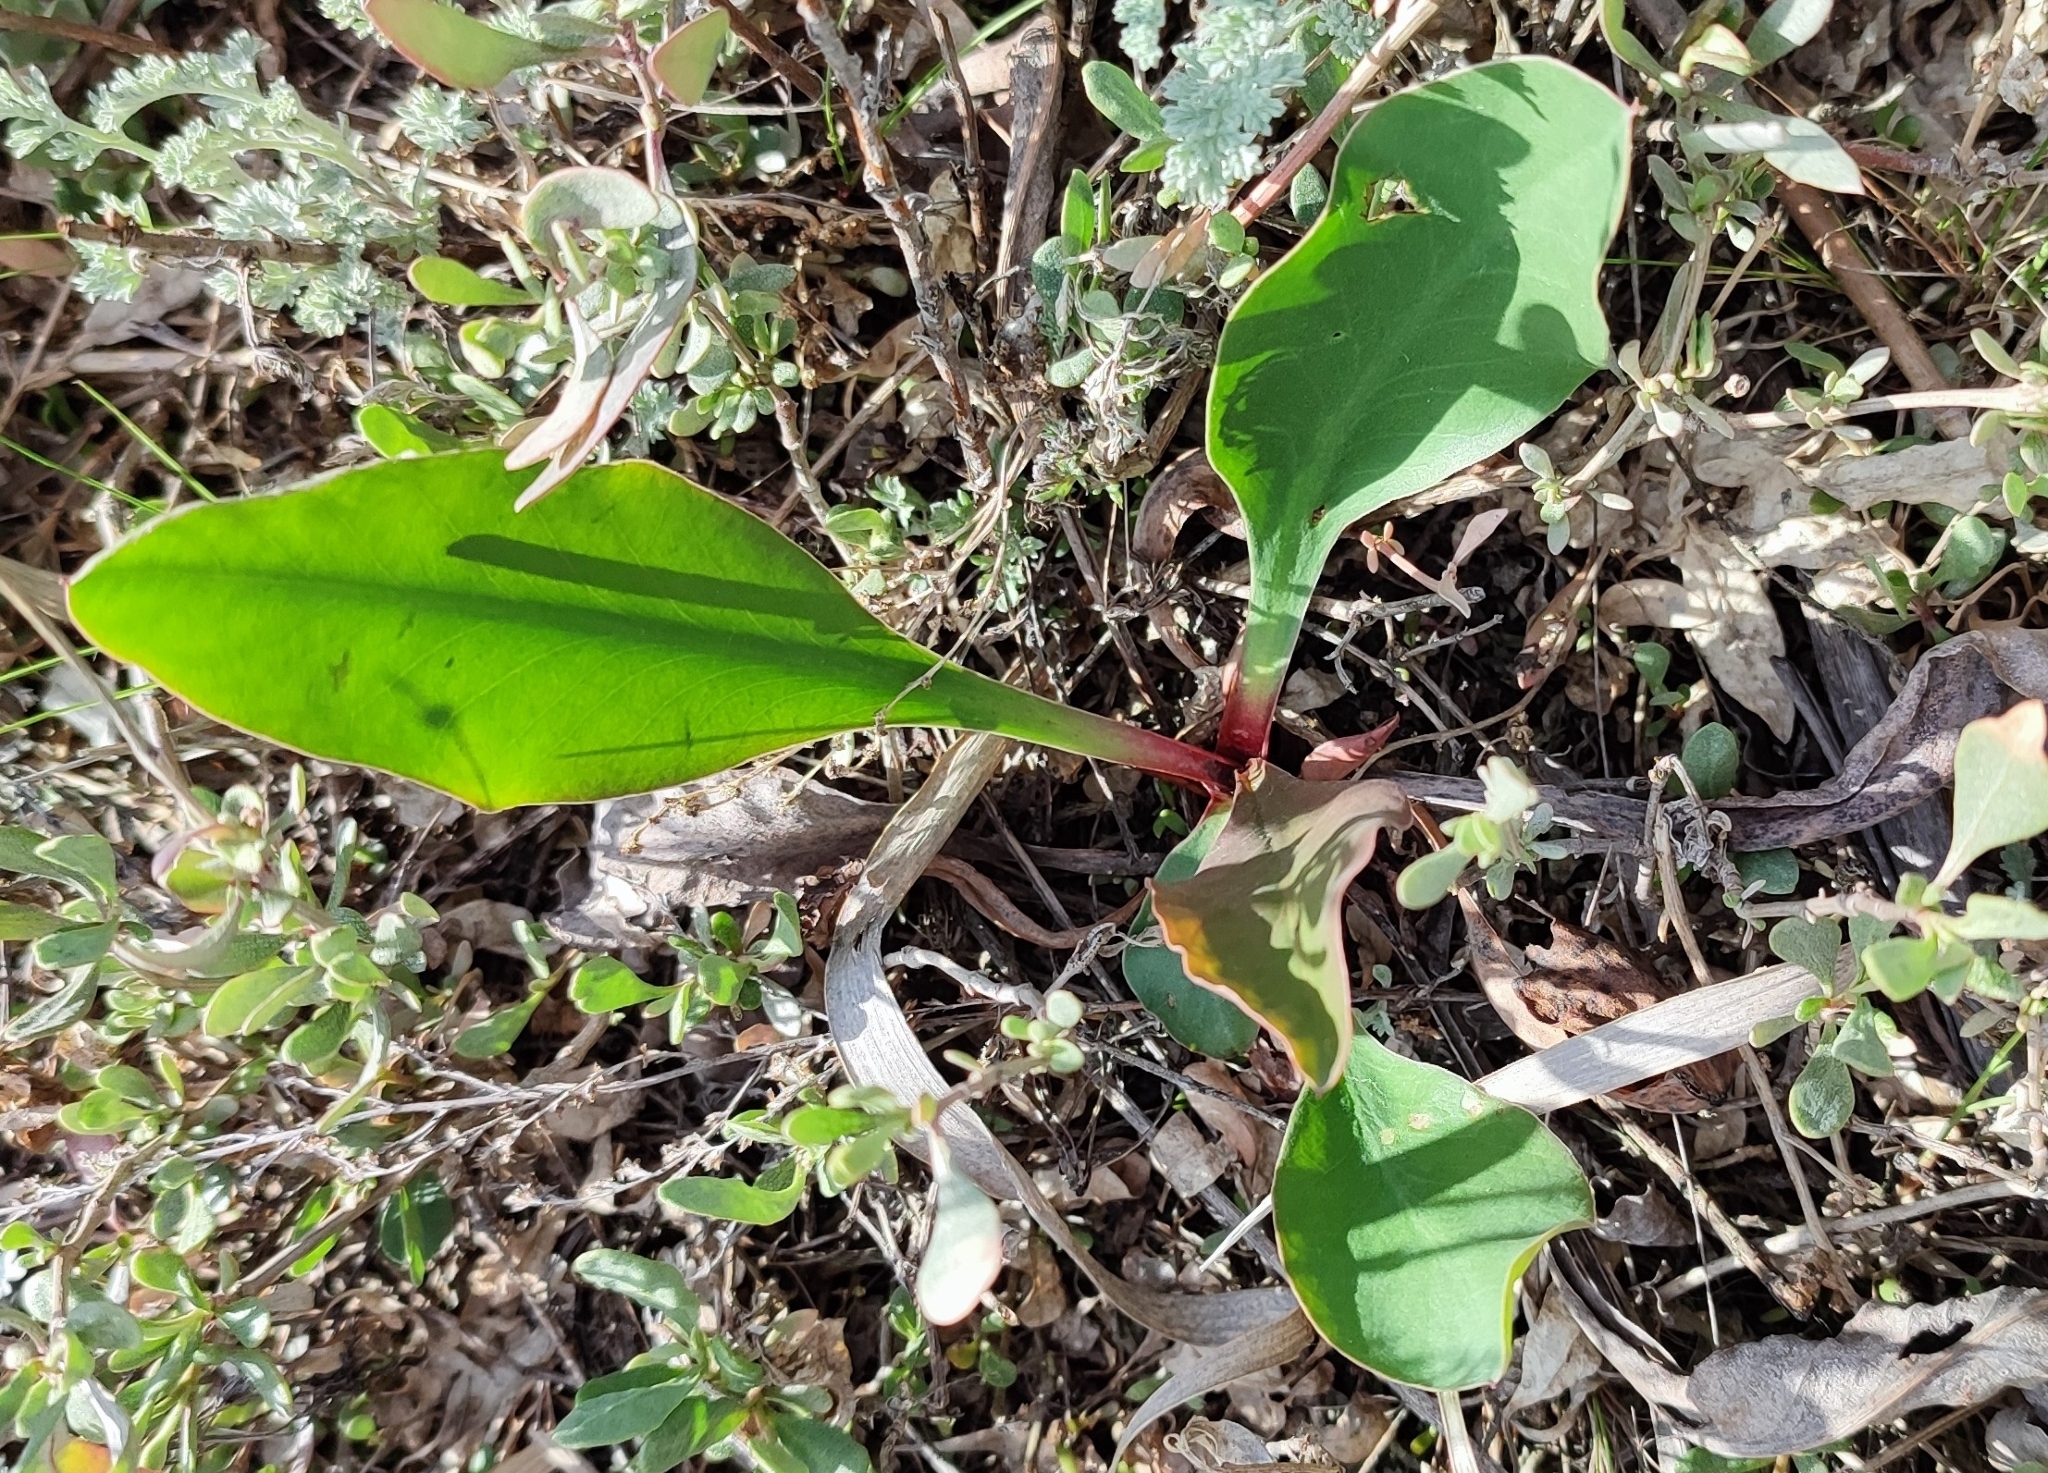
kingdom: Plantae
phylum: Tracheophyta
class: Magnoliopsida
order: Caryophyllales
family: Plumbaginaceae
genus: Limonium
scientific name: Limonium gmelini
